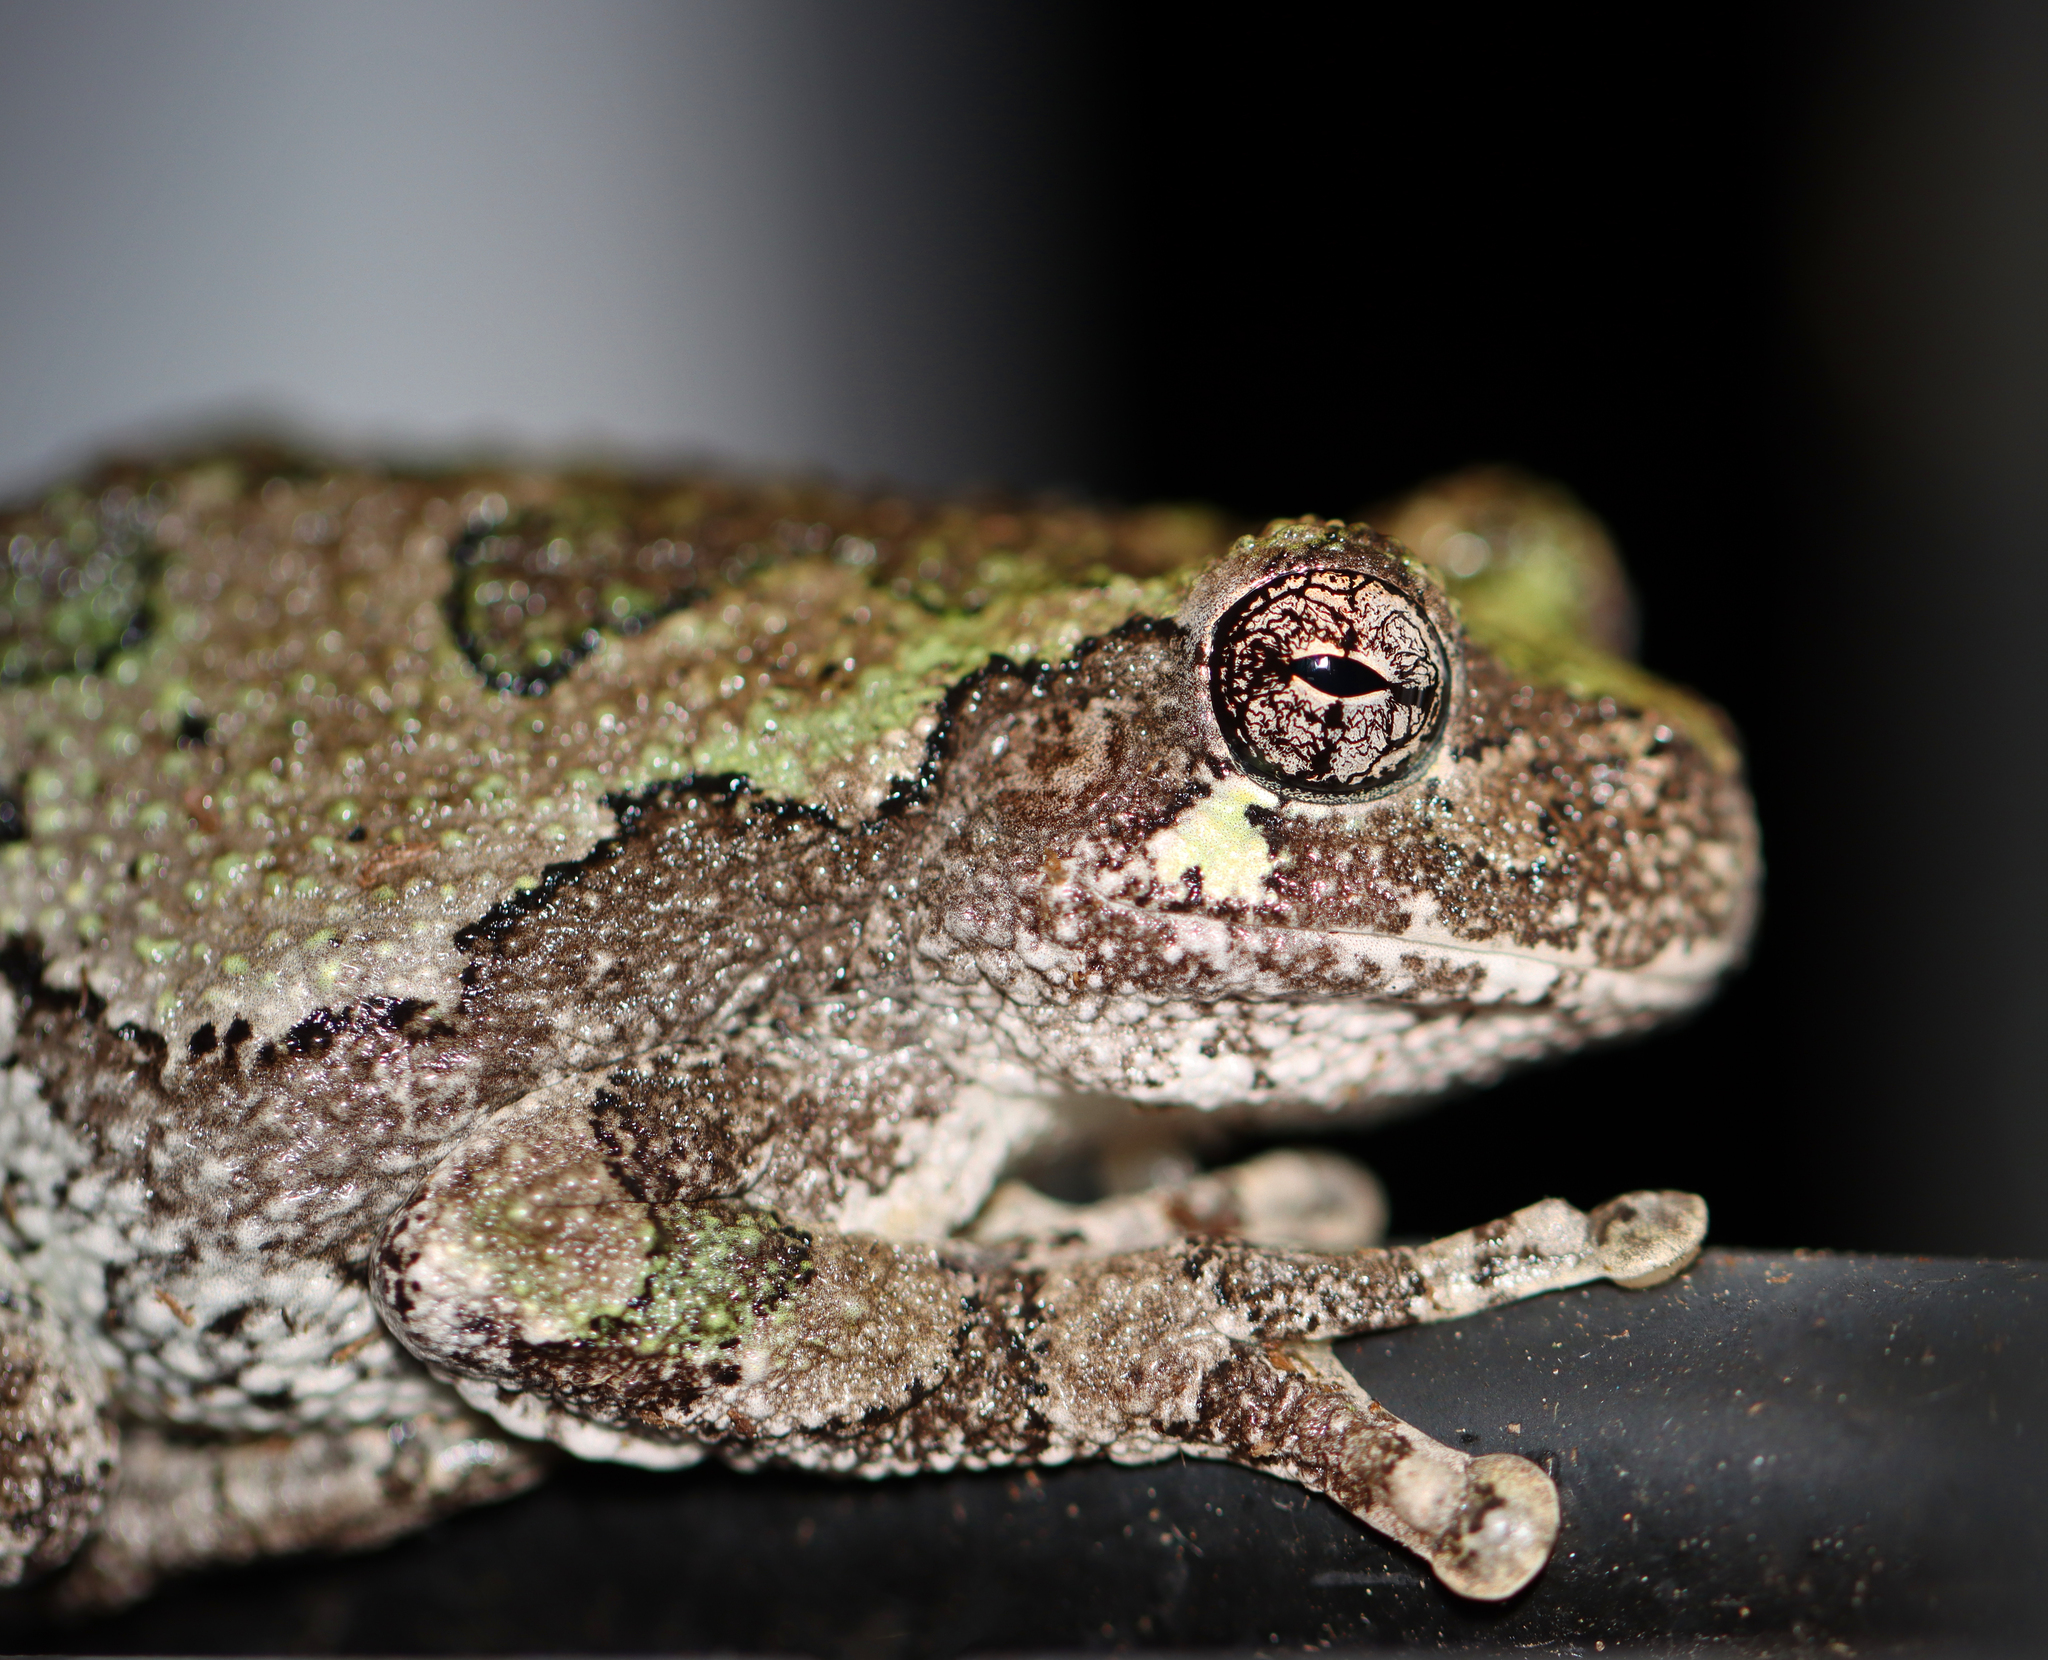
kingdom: Animalia
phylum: Chordata
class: Amphibia
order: Anura
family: Hylidae
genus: Dryophytes
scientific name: Dryophytes versicolor
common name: Gray treefrog
